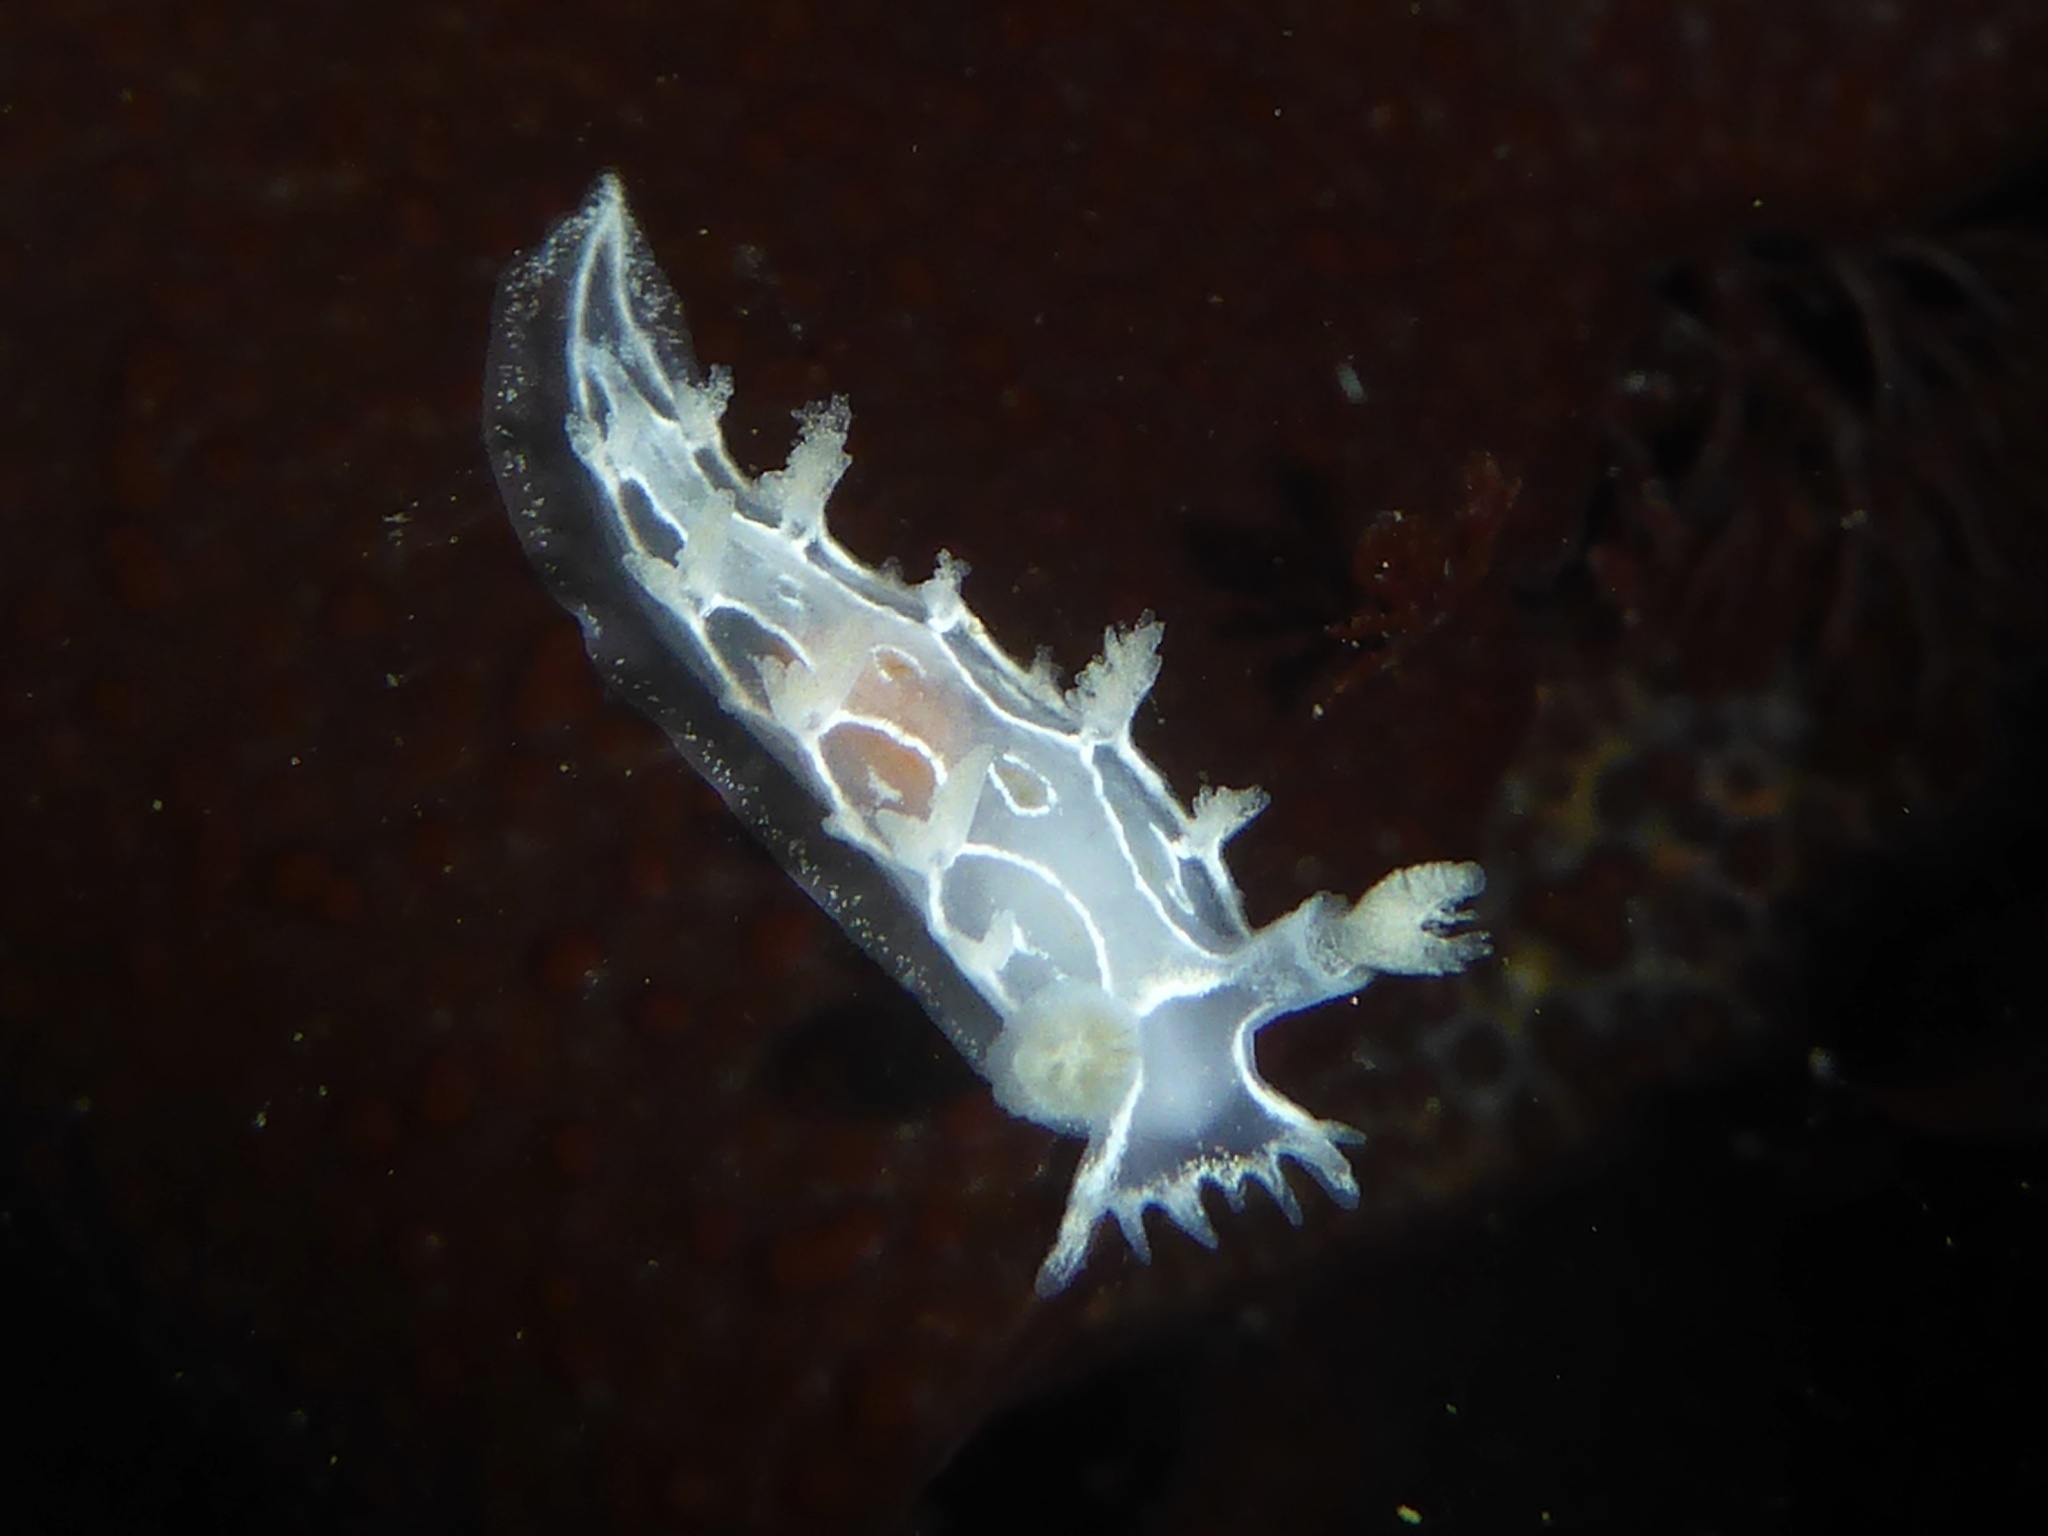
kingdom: Animalia
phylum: Mollusca
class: Gastropoda
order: Nudibranchia
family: Tritoniidae
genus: Tritonia
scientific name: Tritonia festiva
